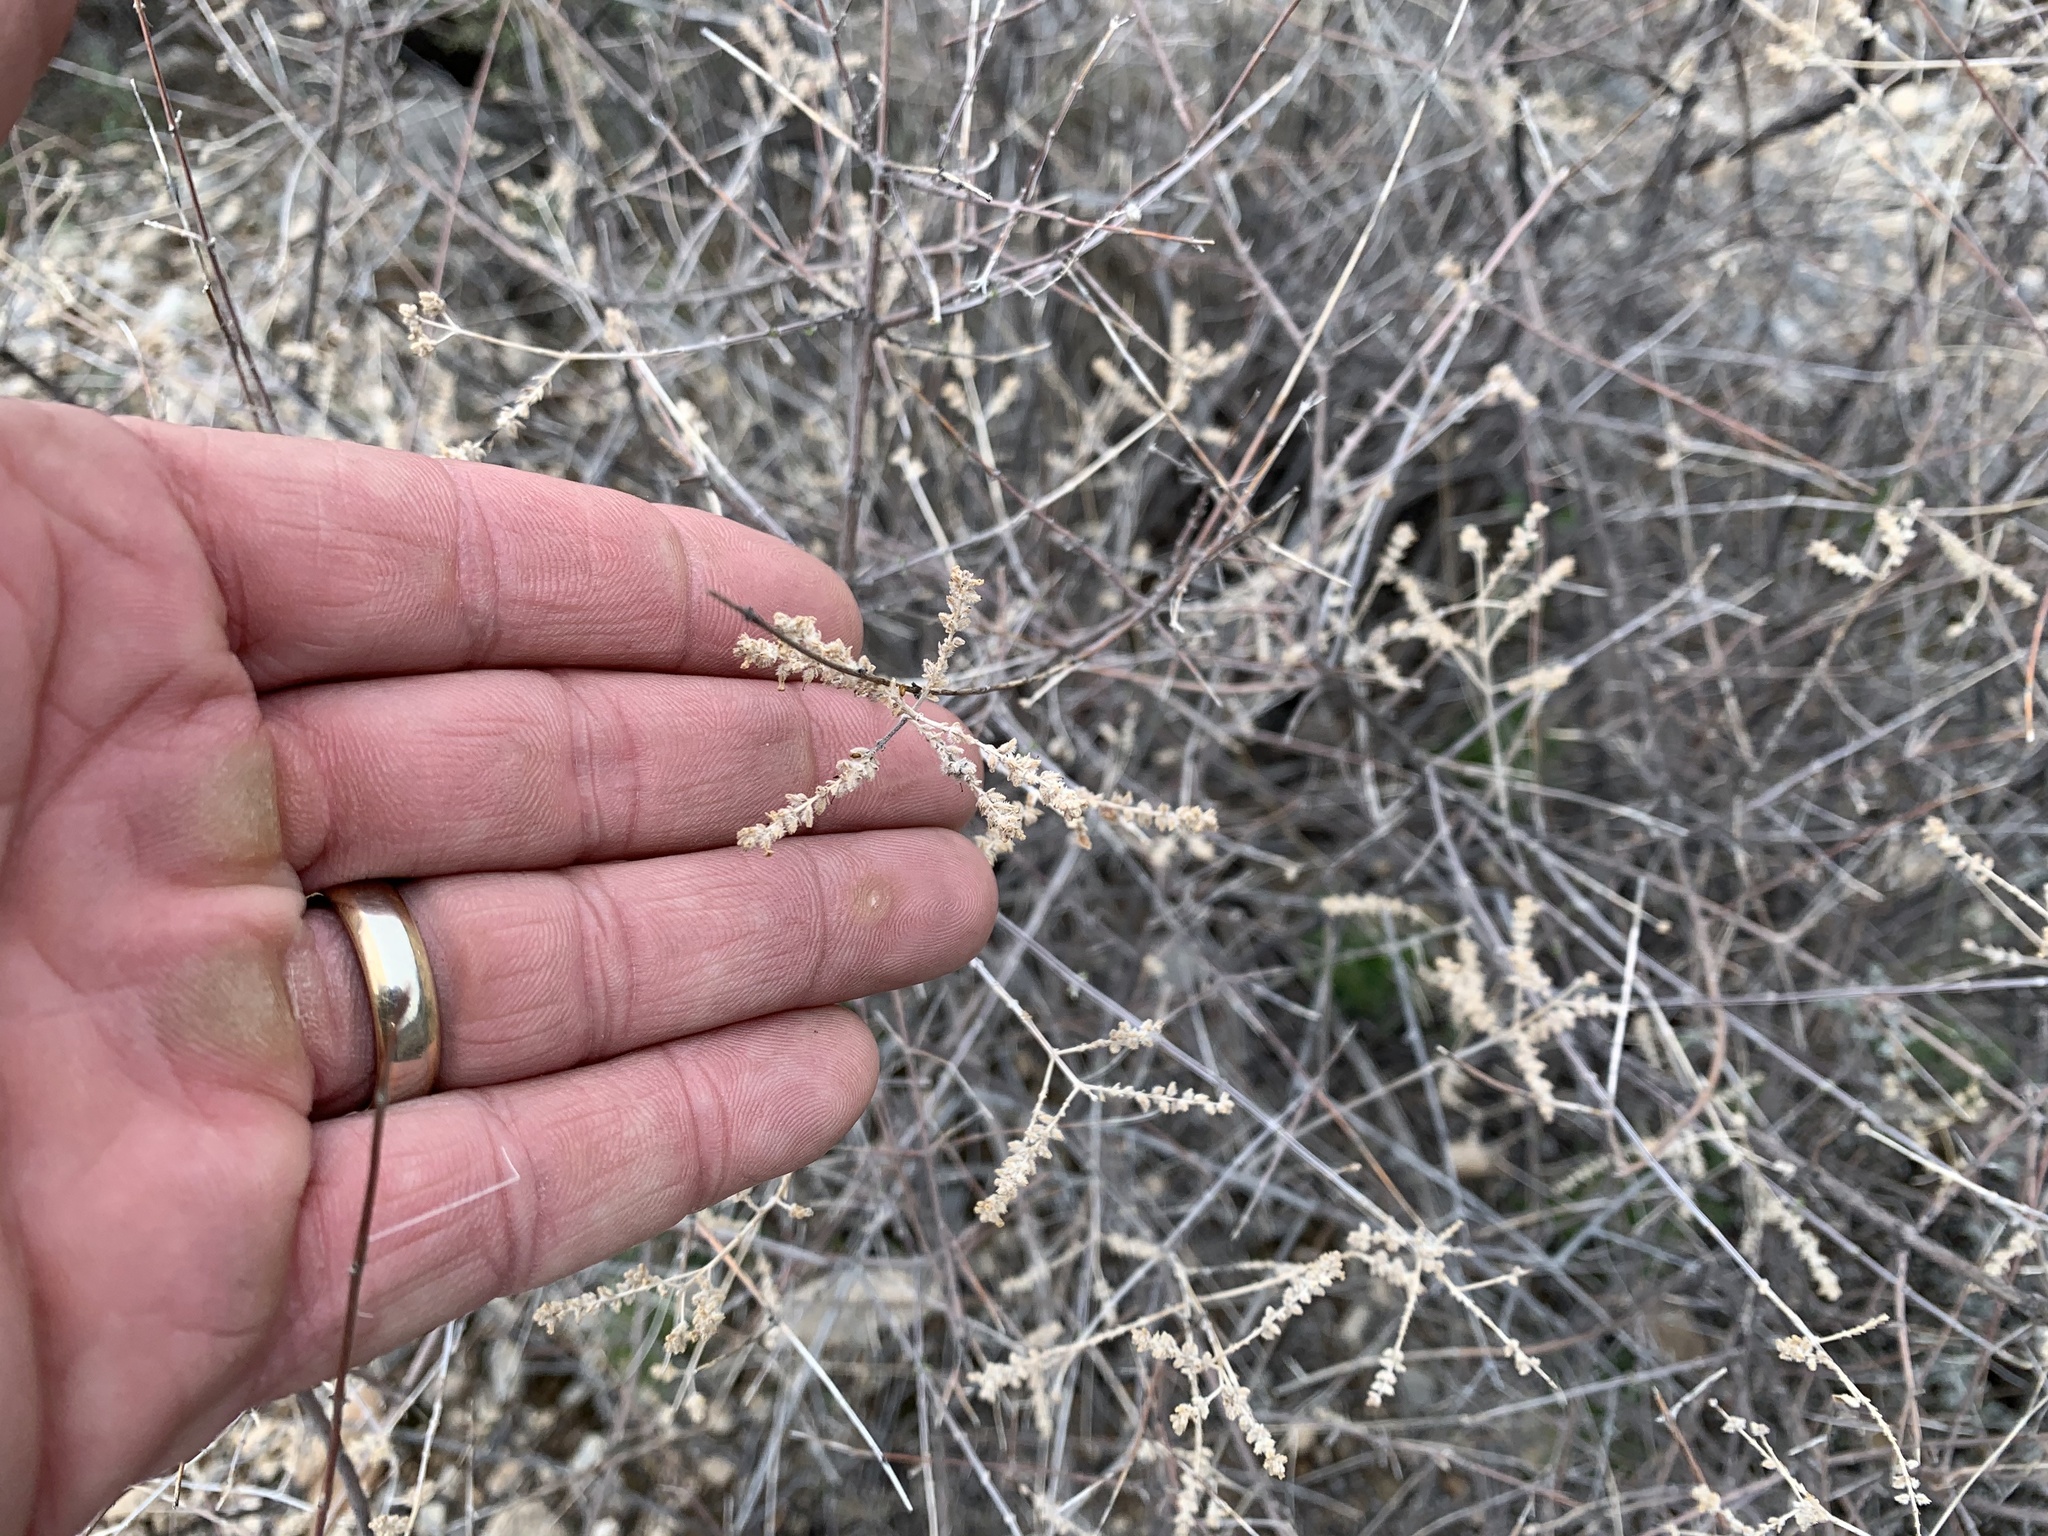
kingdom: Plantae
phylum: Tracheophyta
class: Magnoliopsida
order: Lamiales
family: Verbenaceae
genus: Aloysia
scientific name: Aloysia wrightii
